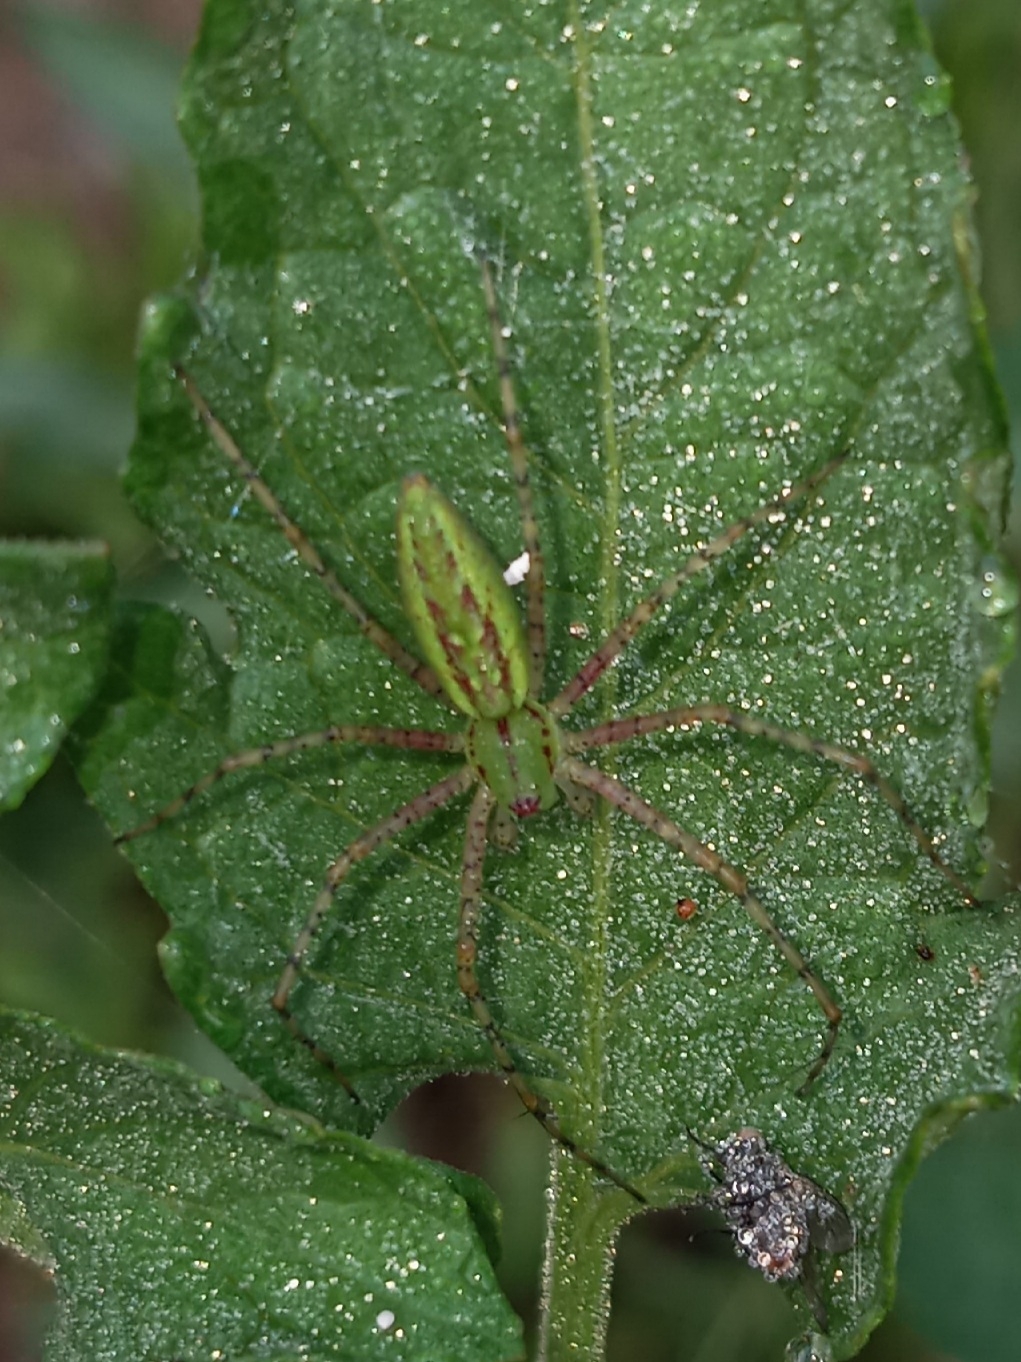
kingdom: Animalia
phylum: Arthropoda
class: Arachnida
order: Araneae
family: Oxyopidae
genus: Peucetia
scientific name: Peucetia viridans
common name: Lynx spiders
